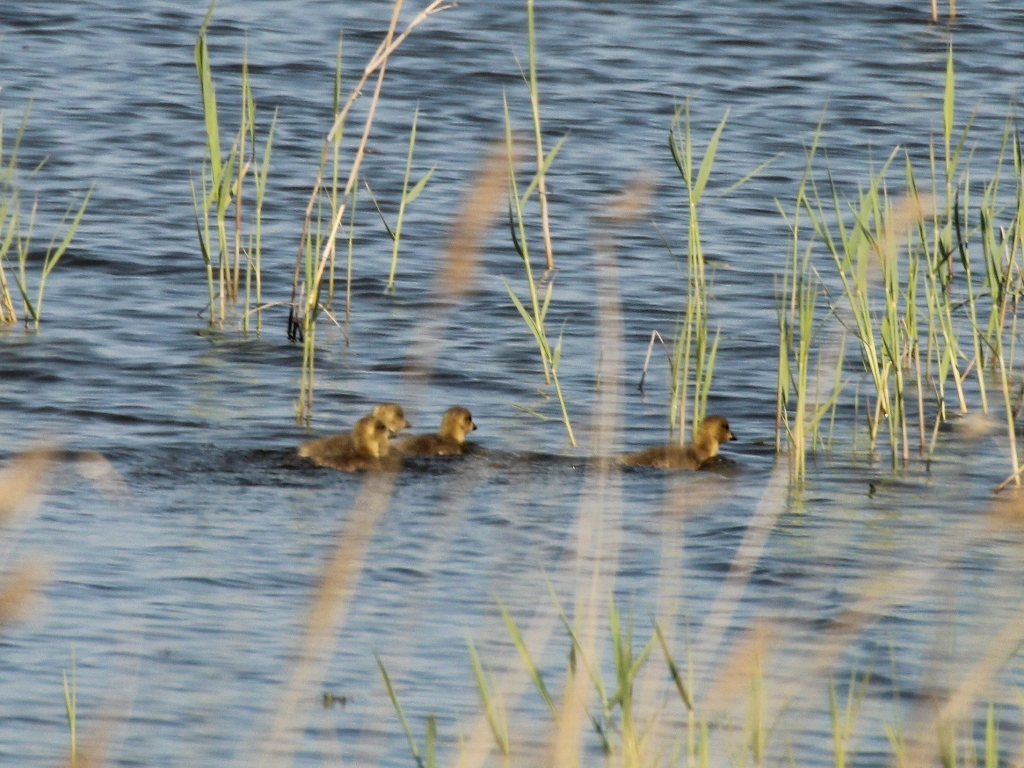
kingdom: Animalia
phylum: Chordata
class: Aves
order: Anseriformes
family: Anatidae
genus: Anser
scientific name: Anser anser
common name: Greylag goose
